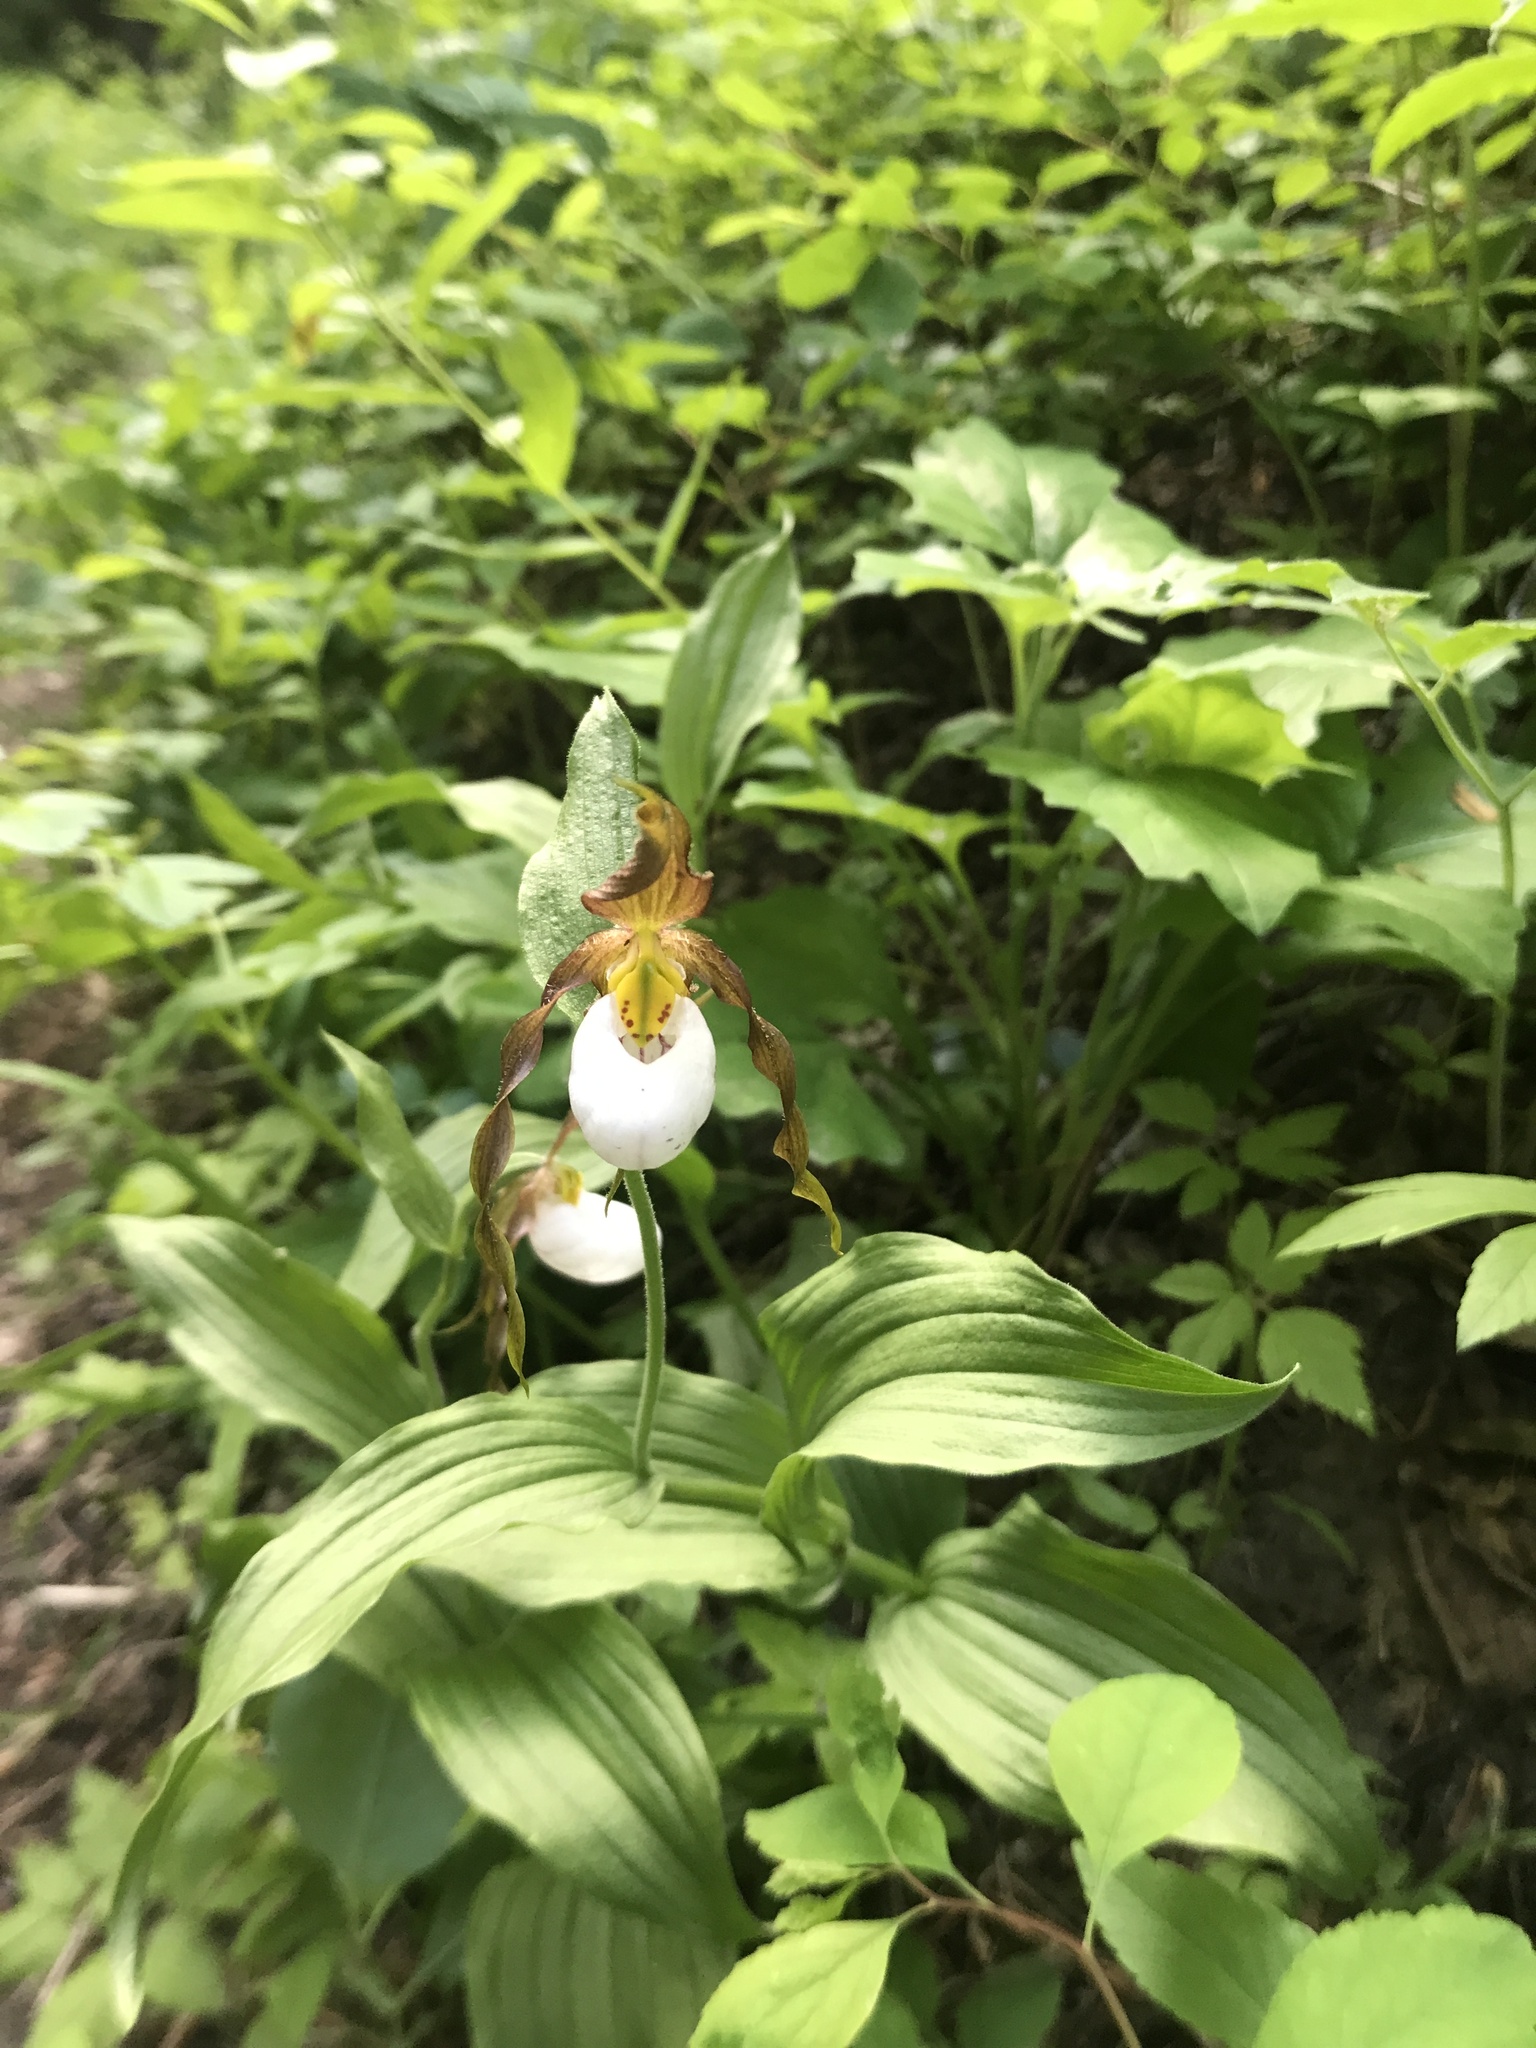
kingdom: Plantae
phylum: Tracheophyta
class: Liliopsida
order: Asparagales
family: Orchidaceae
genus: Cypripedium
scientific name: Cypripedium montanum
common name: Mountain lady's-slipper
